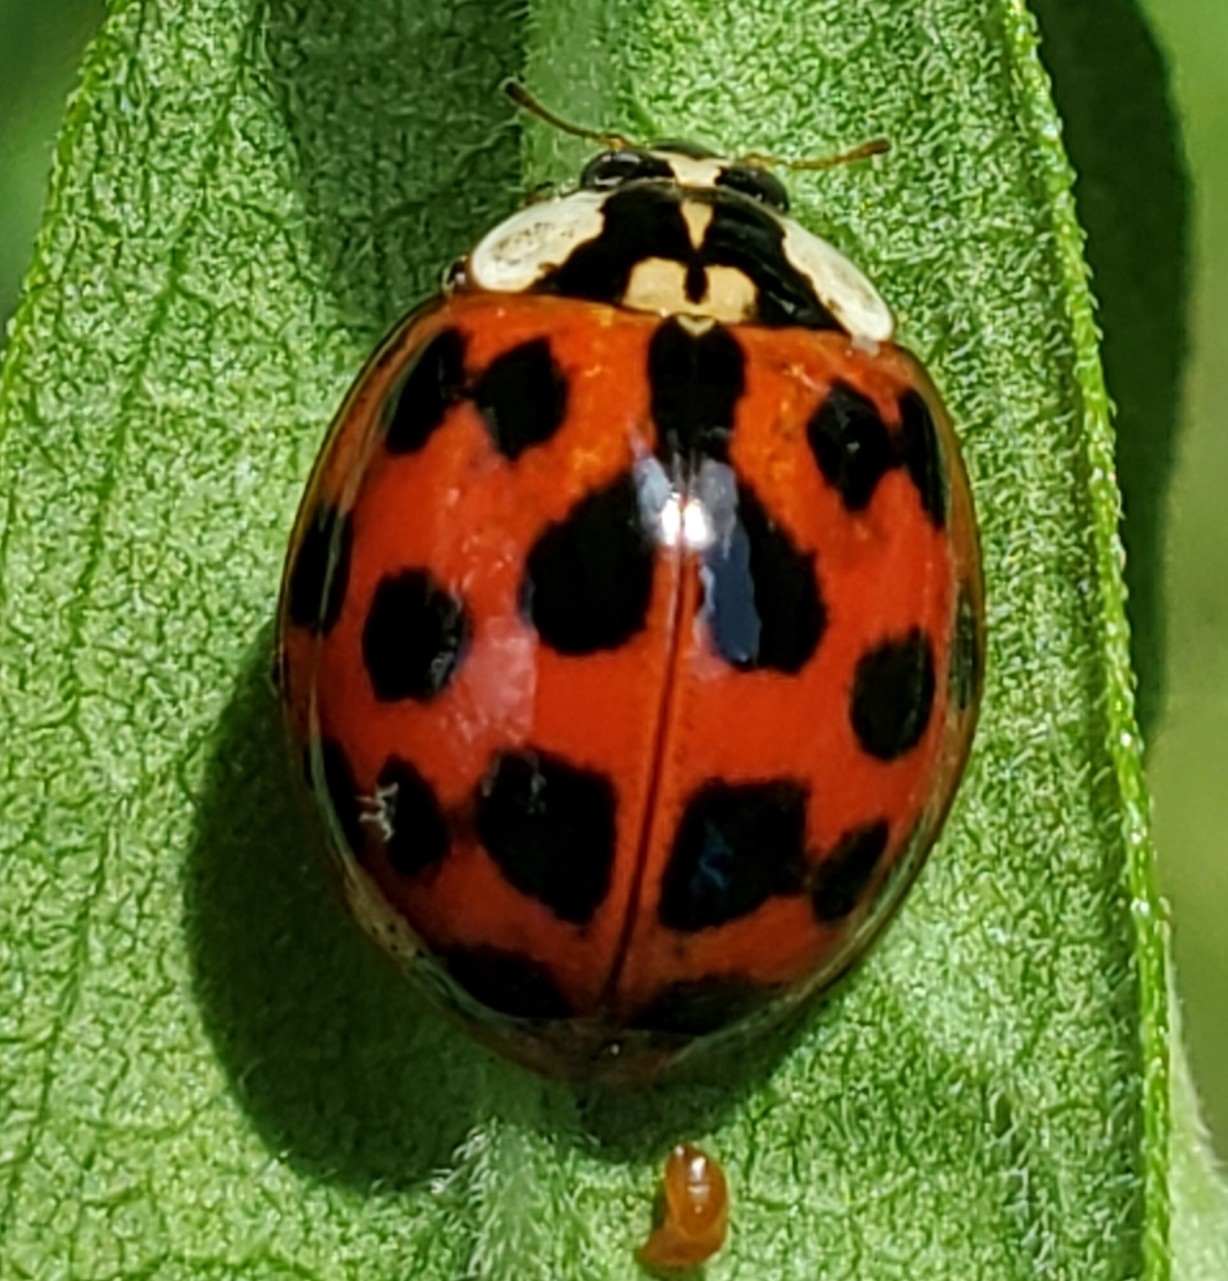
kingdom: Animalia
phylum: Arthropoda
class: Insecta
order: Coleoptera
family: Coccinellidae
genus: Harmonia
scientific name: Harmonia axyridis
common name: Harlequin ladybird
